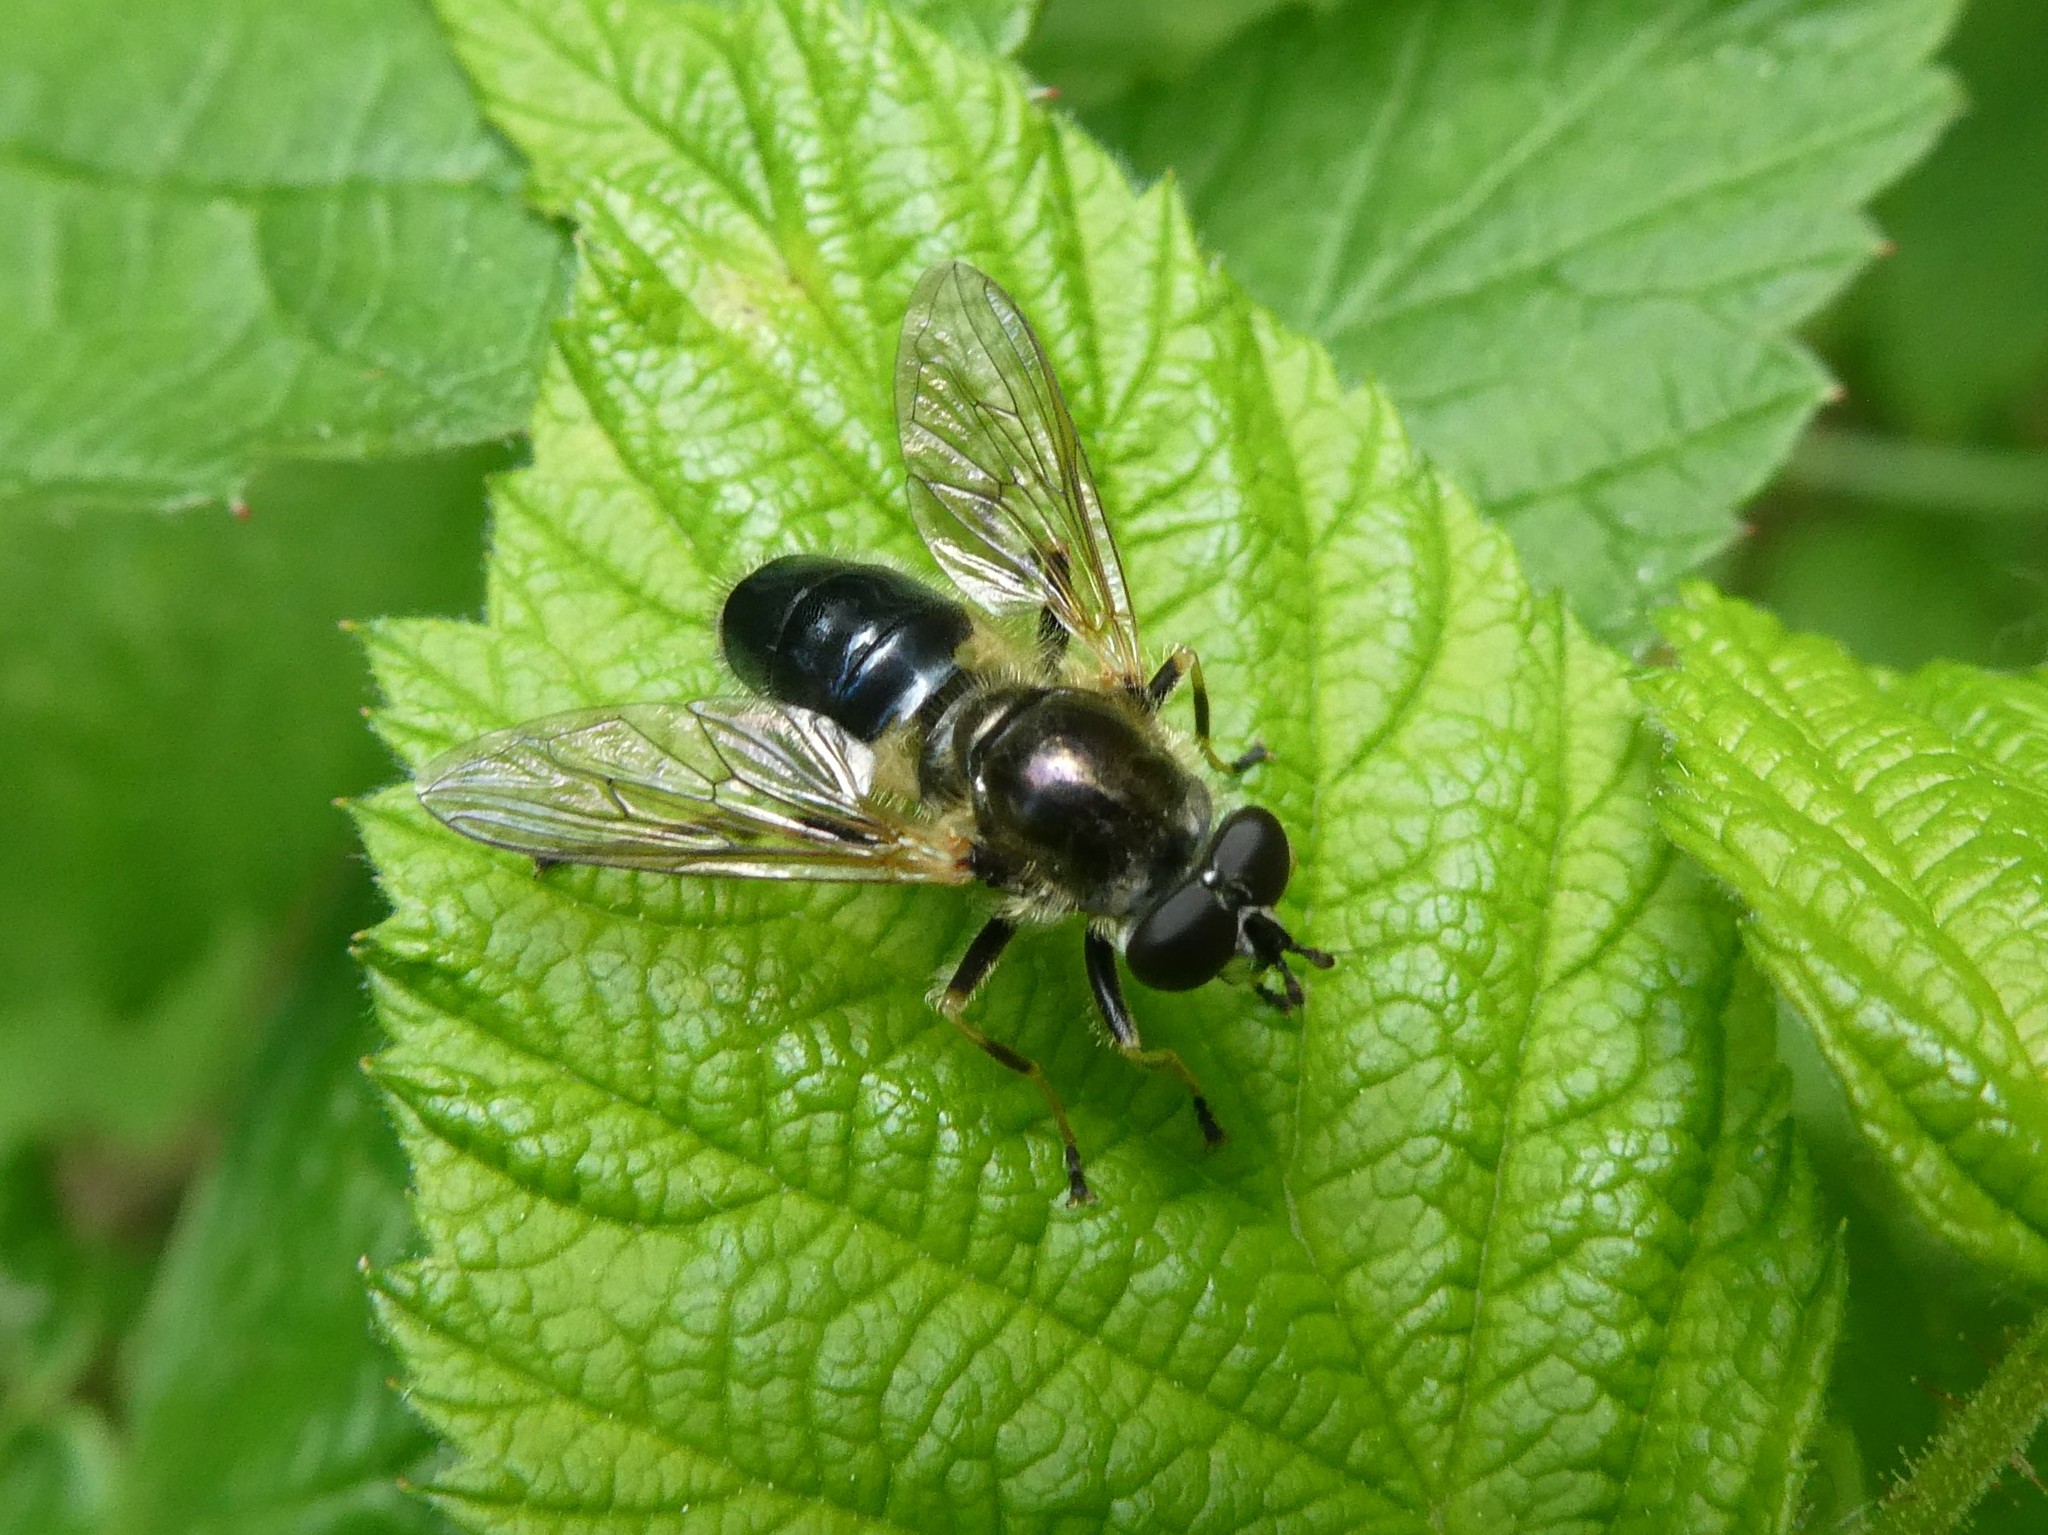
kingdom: Animalia
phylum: Arthropoda
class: Insecta
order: Diptera
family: Syrphidae
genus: Blera
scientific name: Blera badia
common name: Common wood fly
